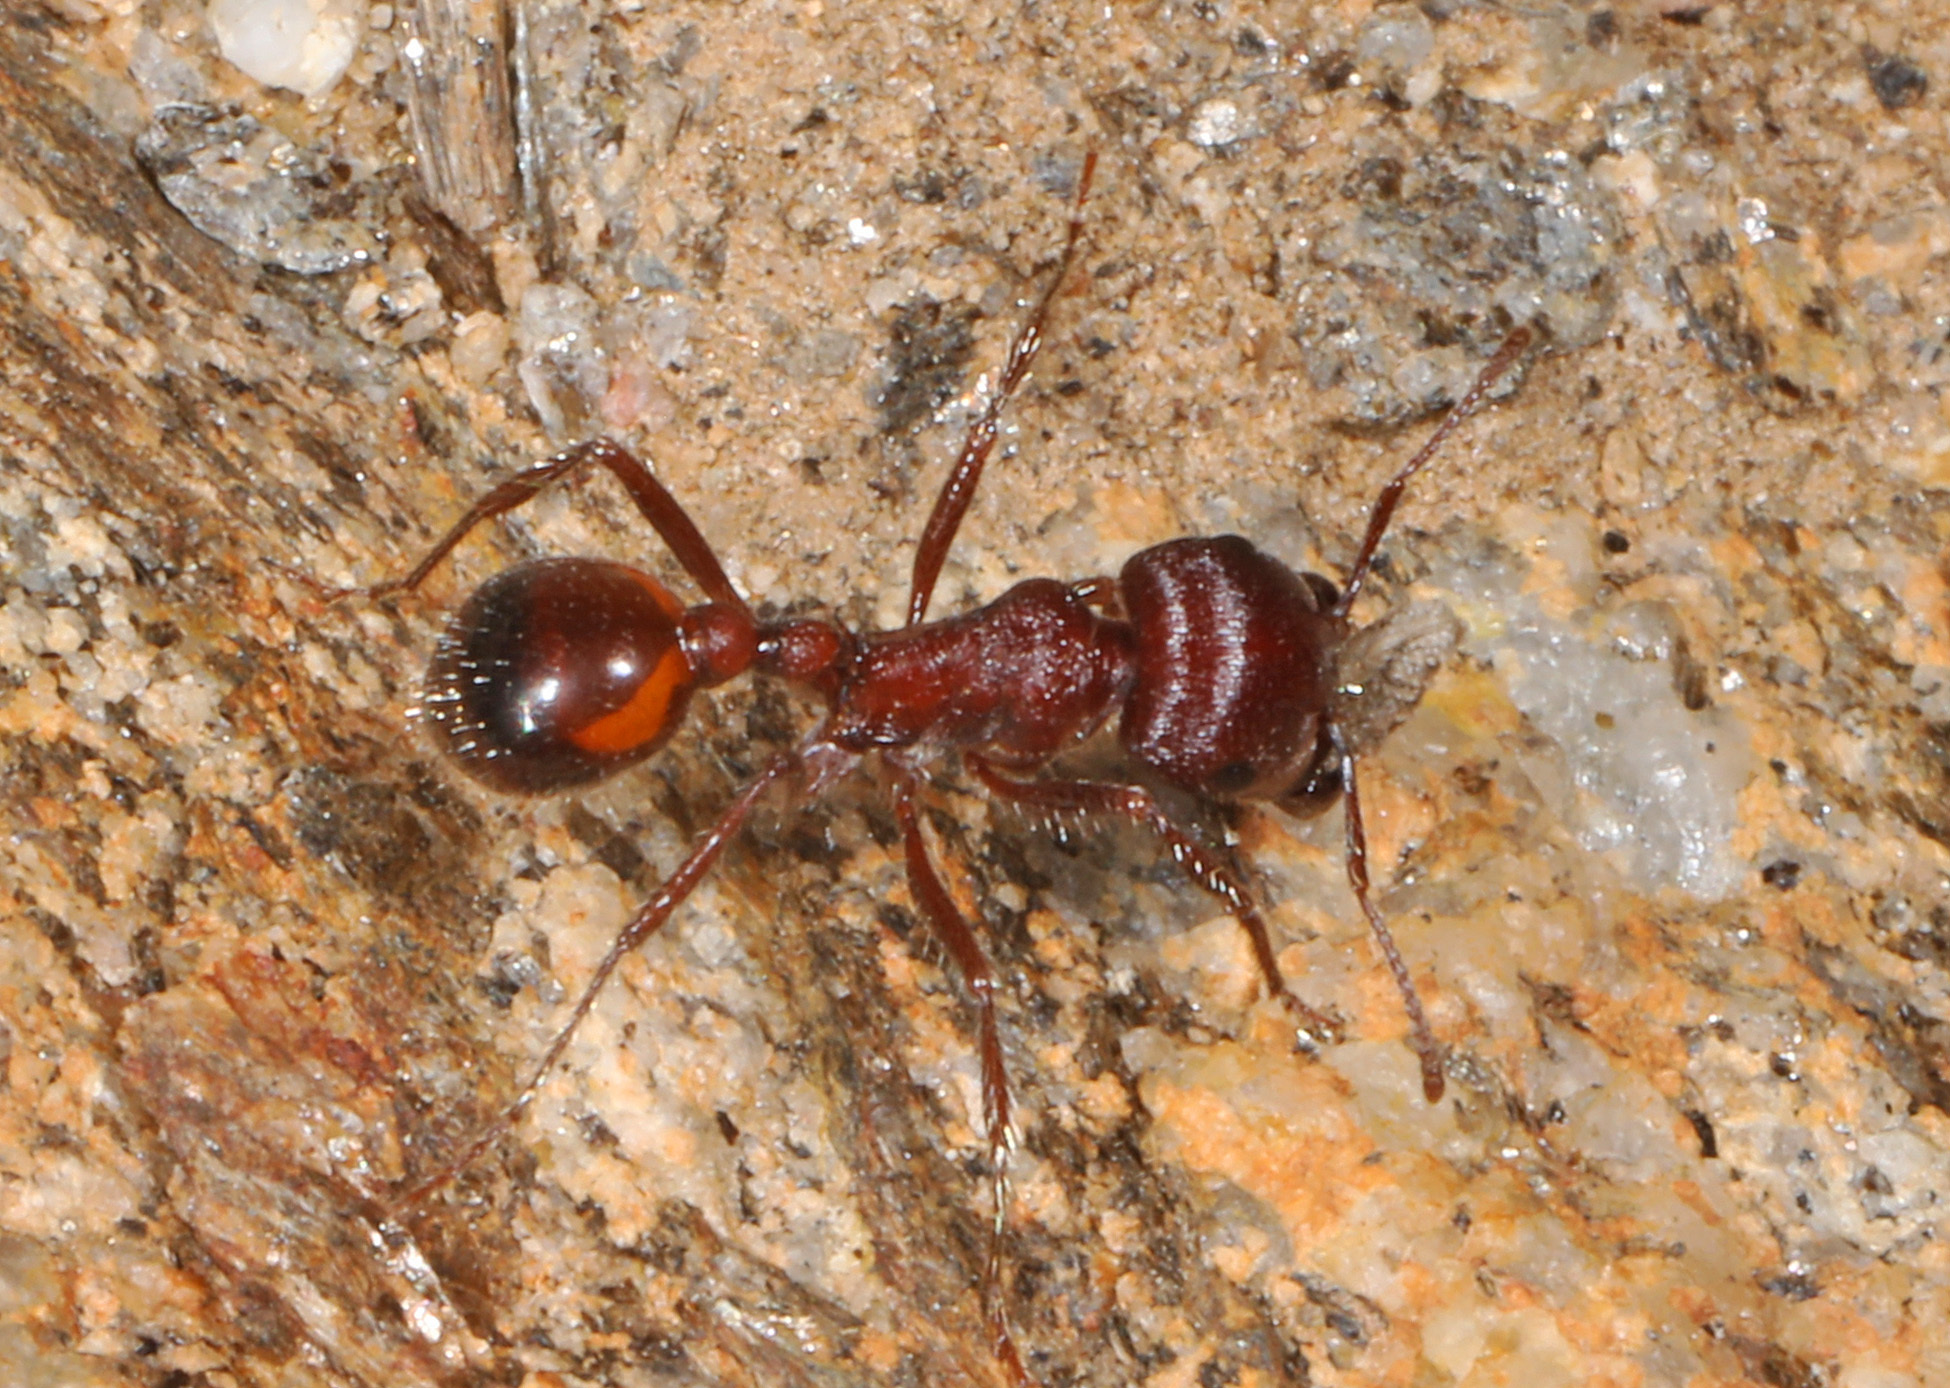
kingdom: Animalia
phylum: Arthropoda
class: Insecta
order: Hymenoptera
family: Formicidae
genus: Pogonomyrmex
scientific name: Pogonomyrmex rugosus
